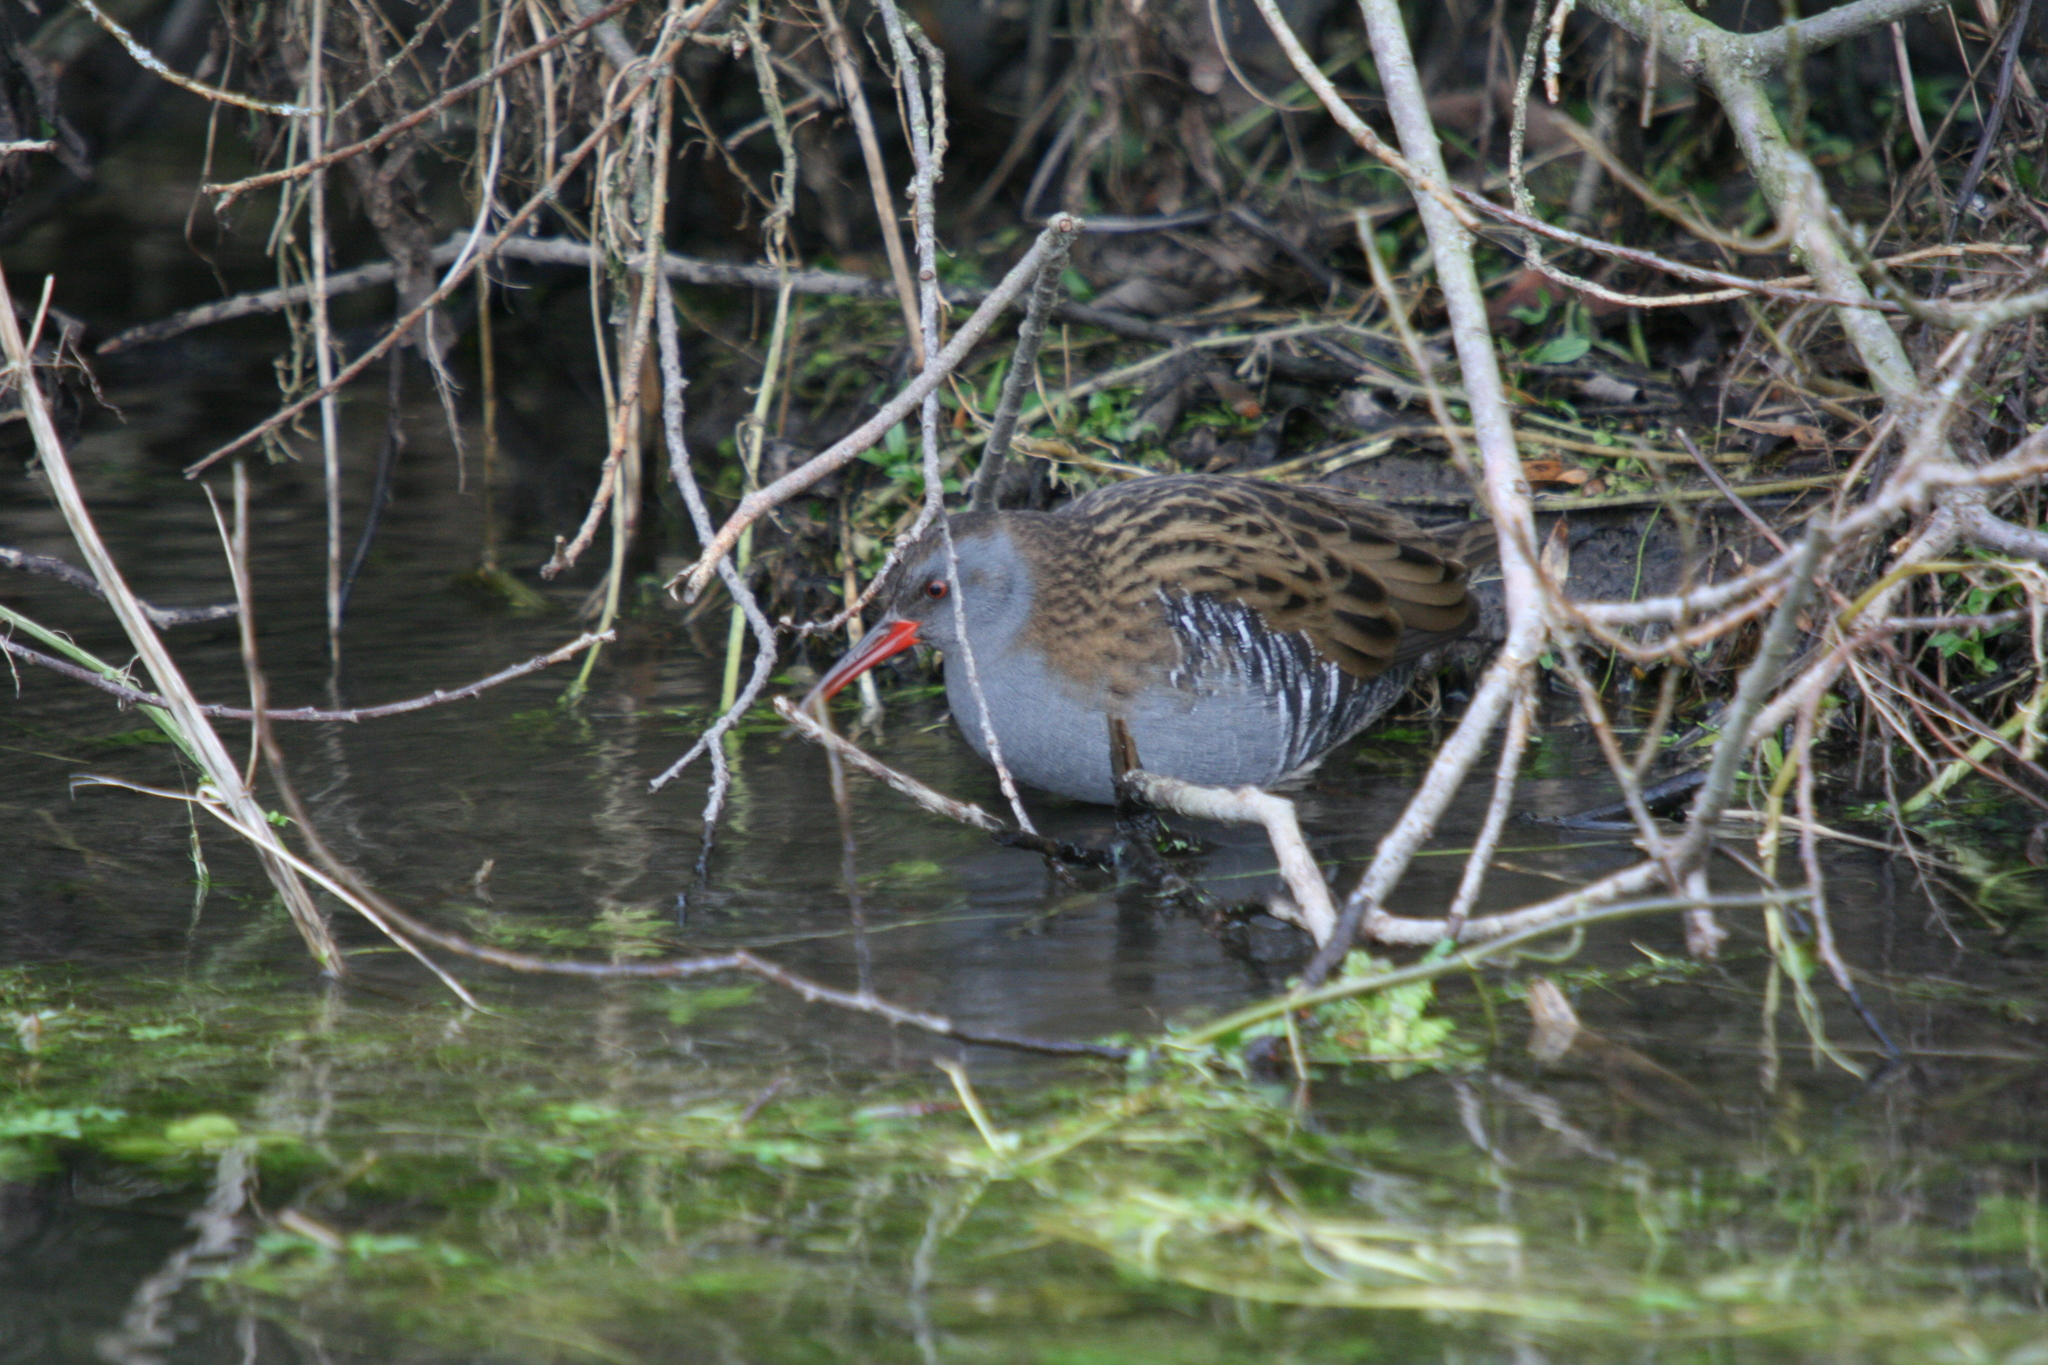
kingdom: Animalia
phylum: Chordata
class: Aves
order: Gruiformes
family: Rallidae
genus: Rallus
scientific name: Rallus aquaticus
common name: Water rail
